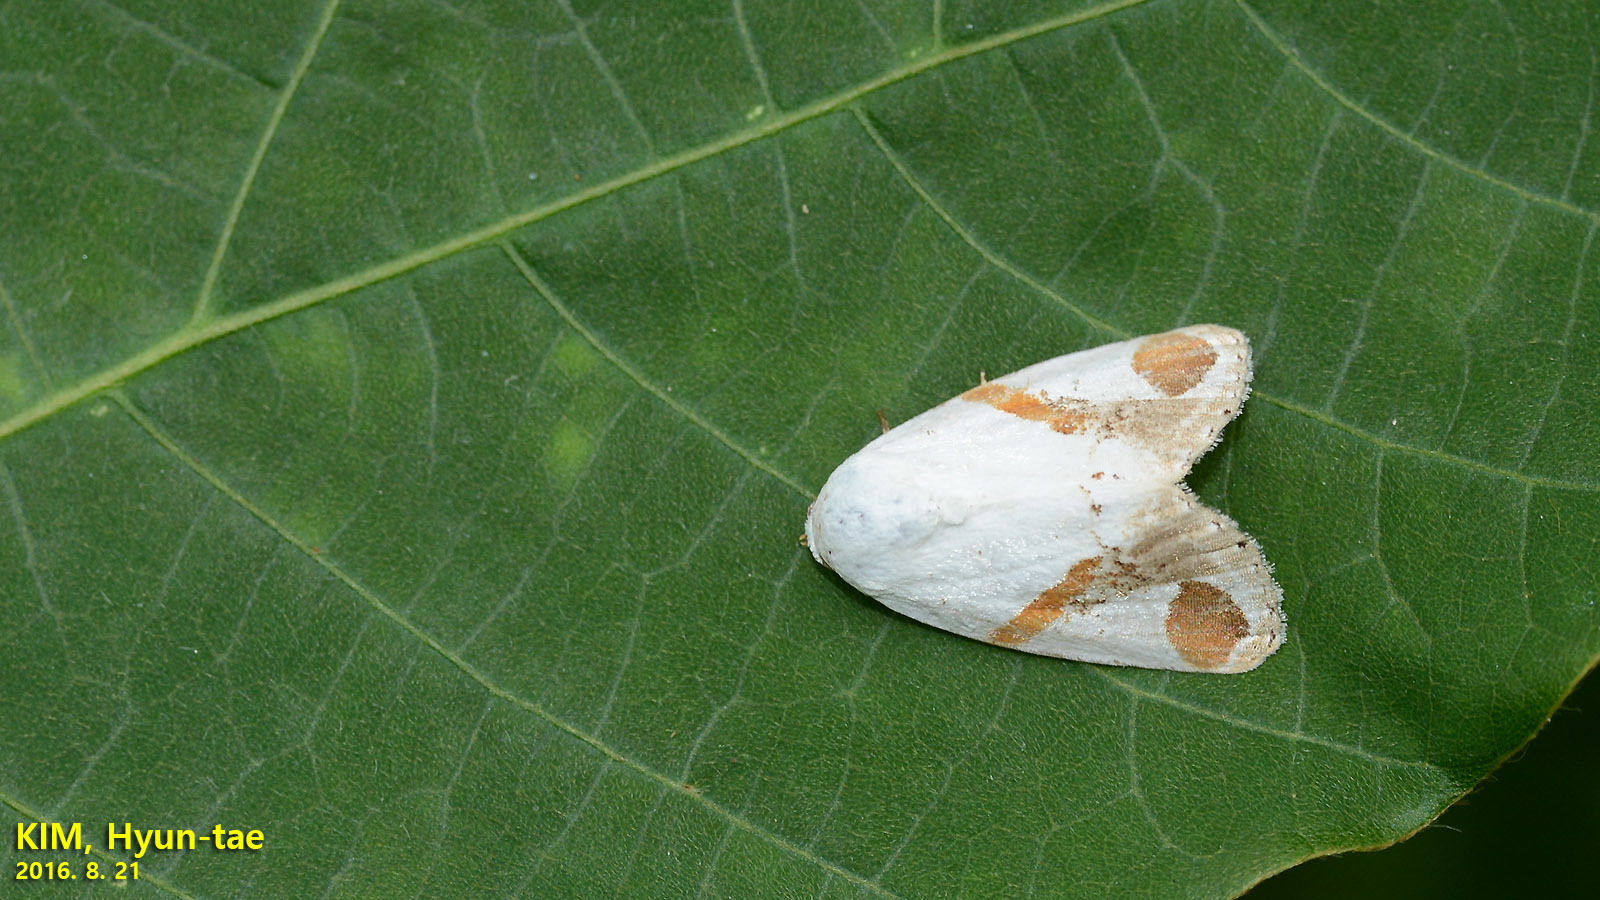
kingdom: Animalia
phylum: Arthropoda
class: Insecta
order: Lepidoptera
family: Noctuidae
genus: Sphragifera
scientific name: Sphragifera biplaga
